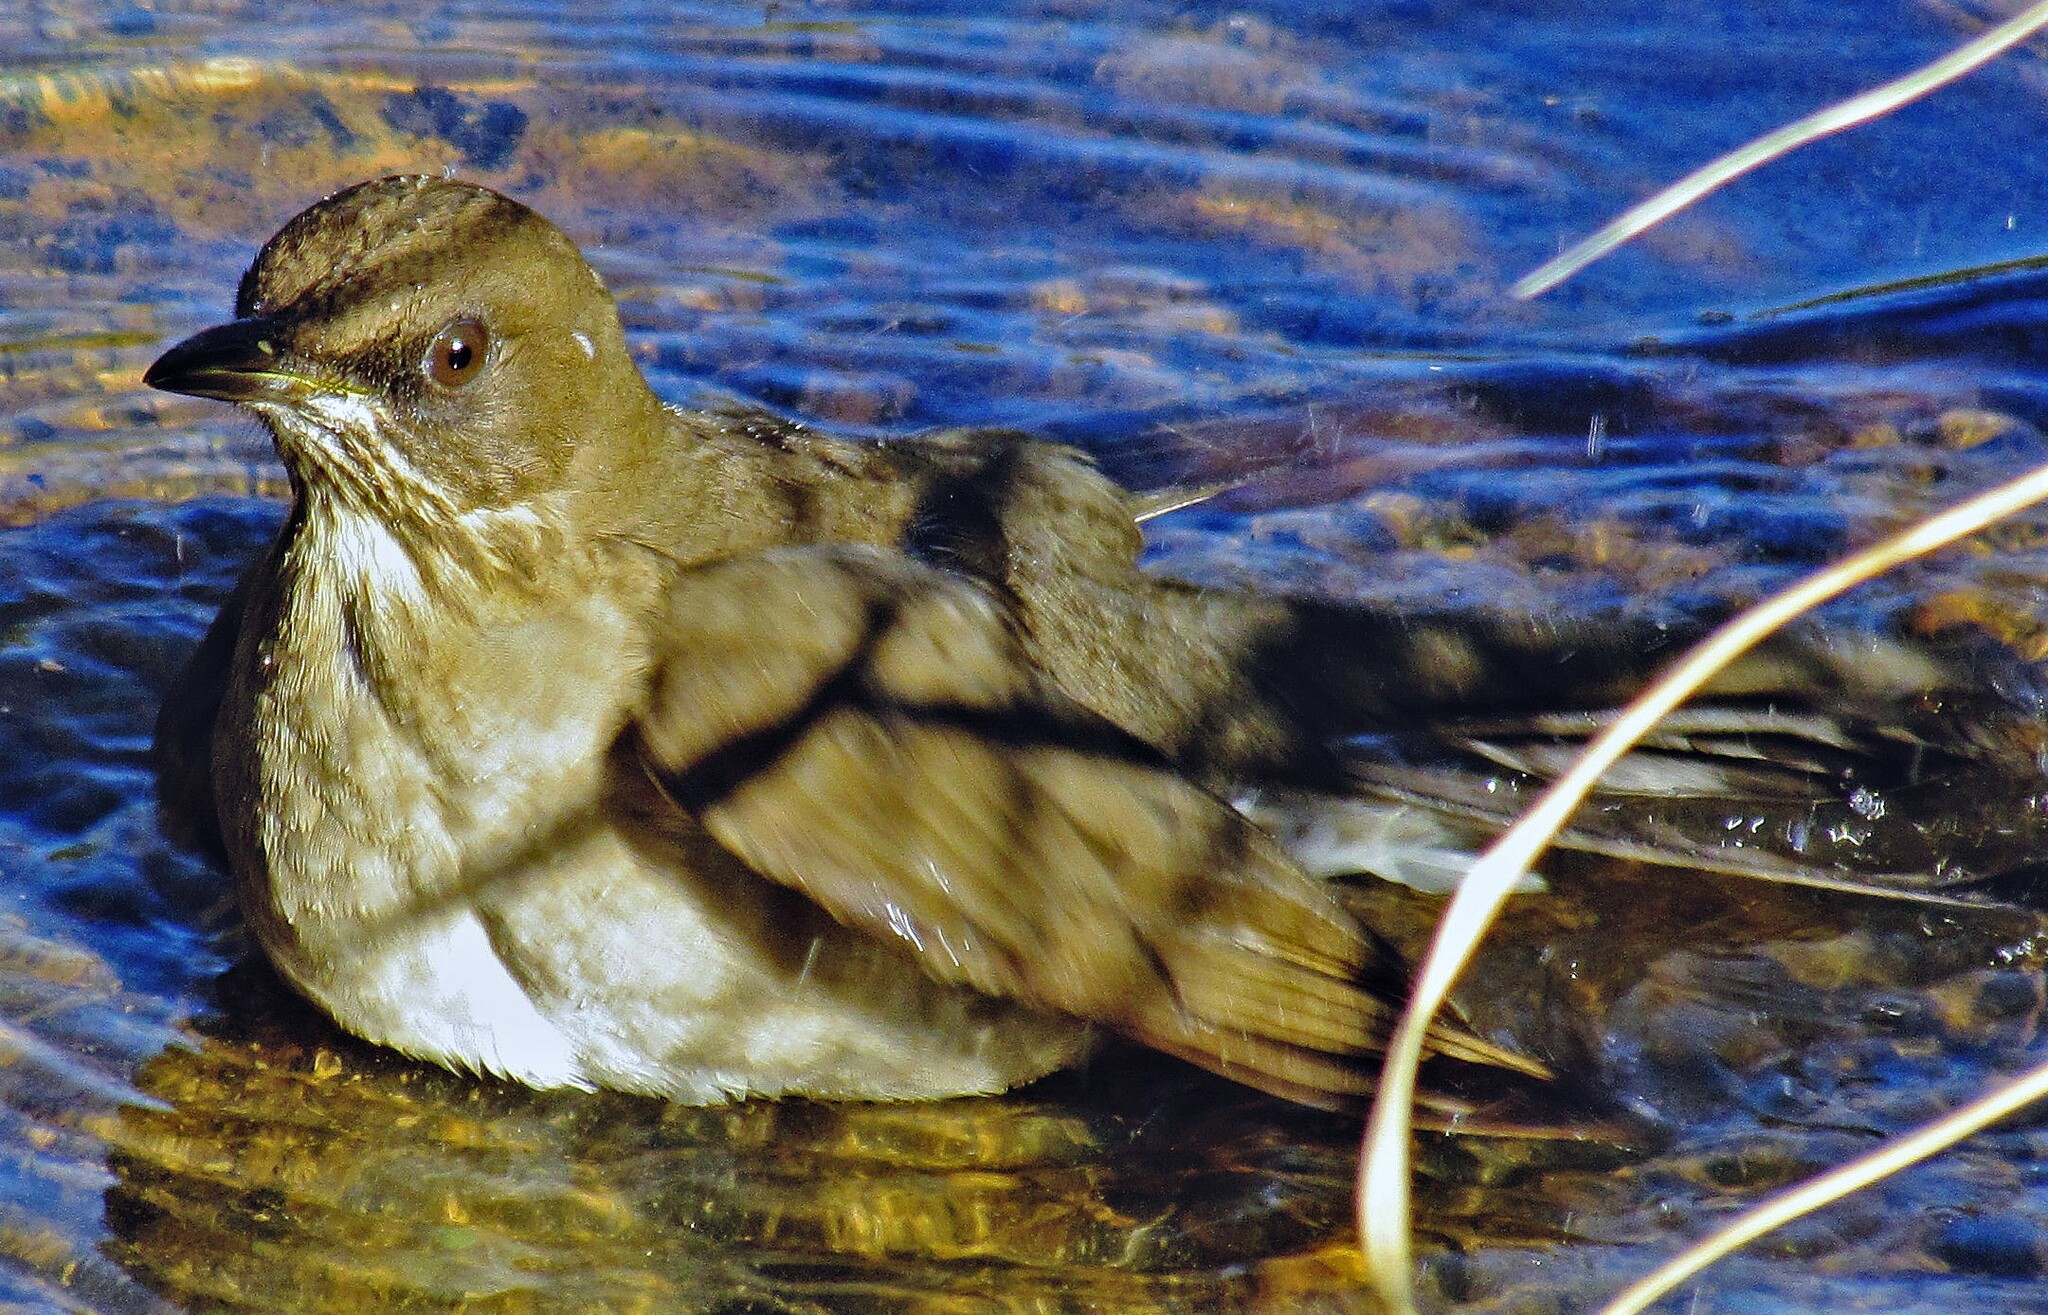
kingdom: Animalia
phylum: Chordata
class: Aves
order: Passeriformes
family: Turdidae
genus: Turdus
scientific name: Turdus amaurochalinus
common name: Creamy-bellied thrush
